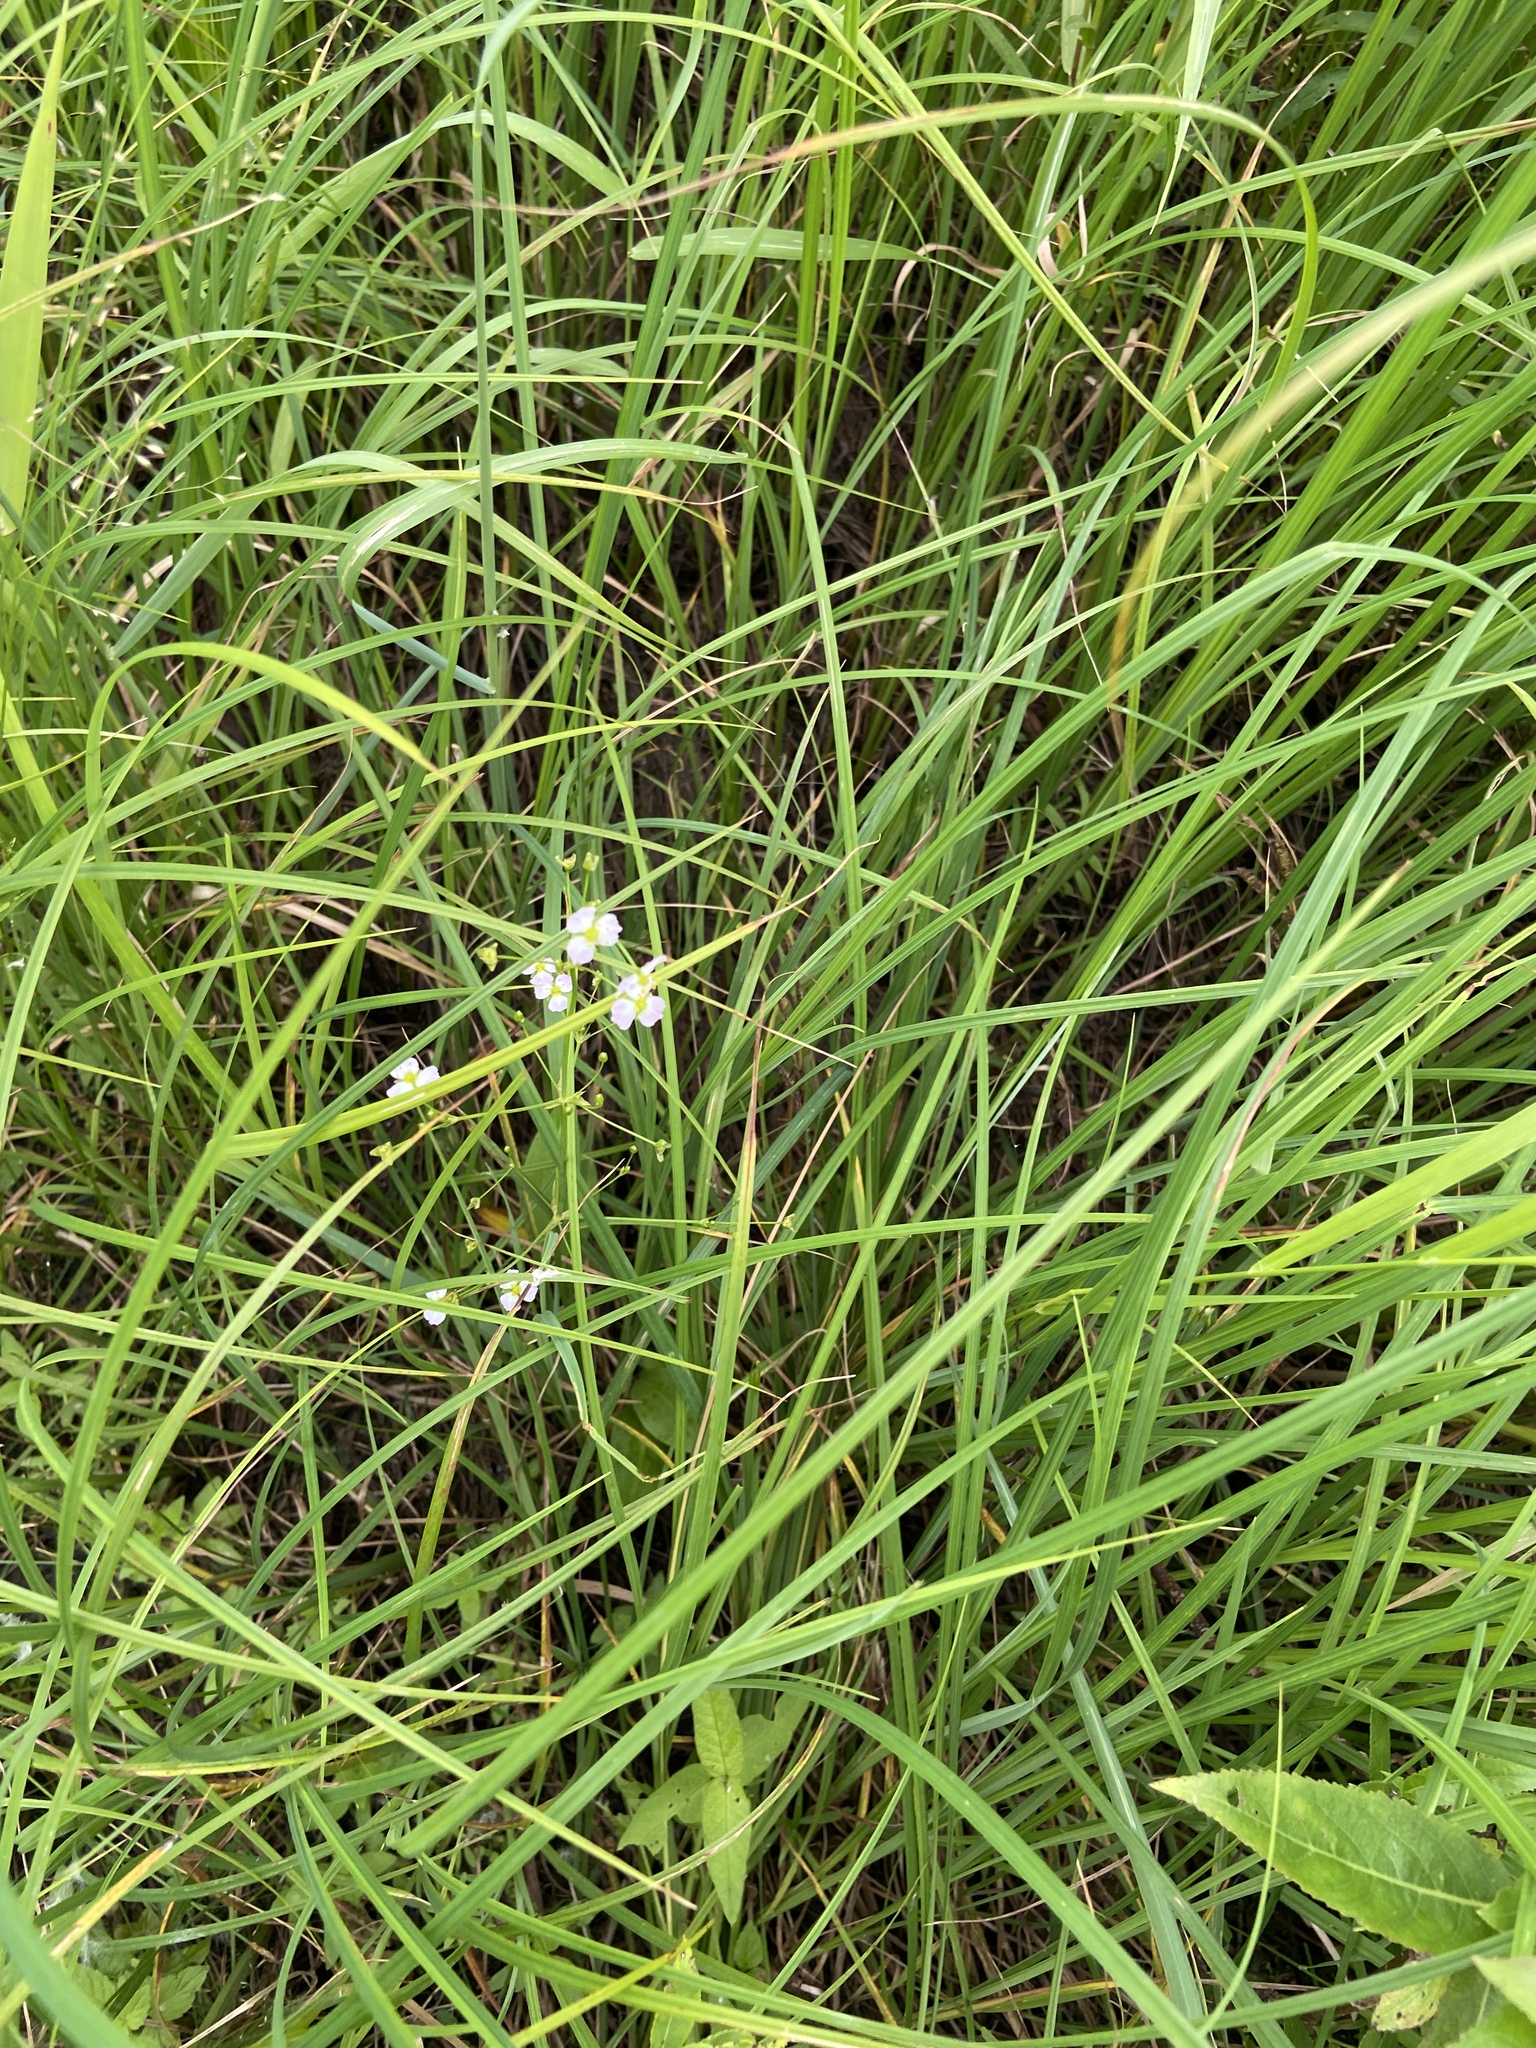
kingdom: Plantae
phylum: Tracheophyta
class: Liliopsida
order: Alismatales
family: Alismataceae
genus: Alisma
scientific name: Alisma plantago-aquatica
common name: Water-plantain
